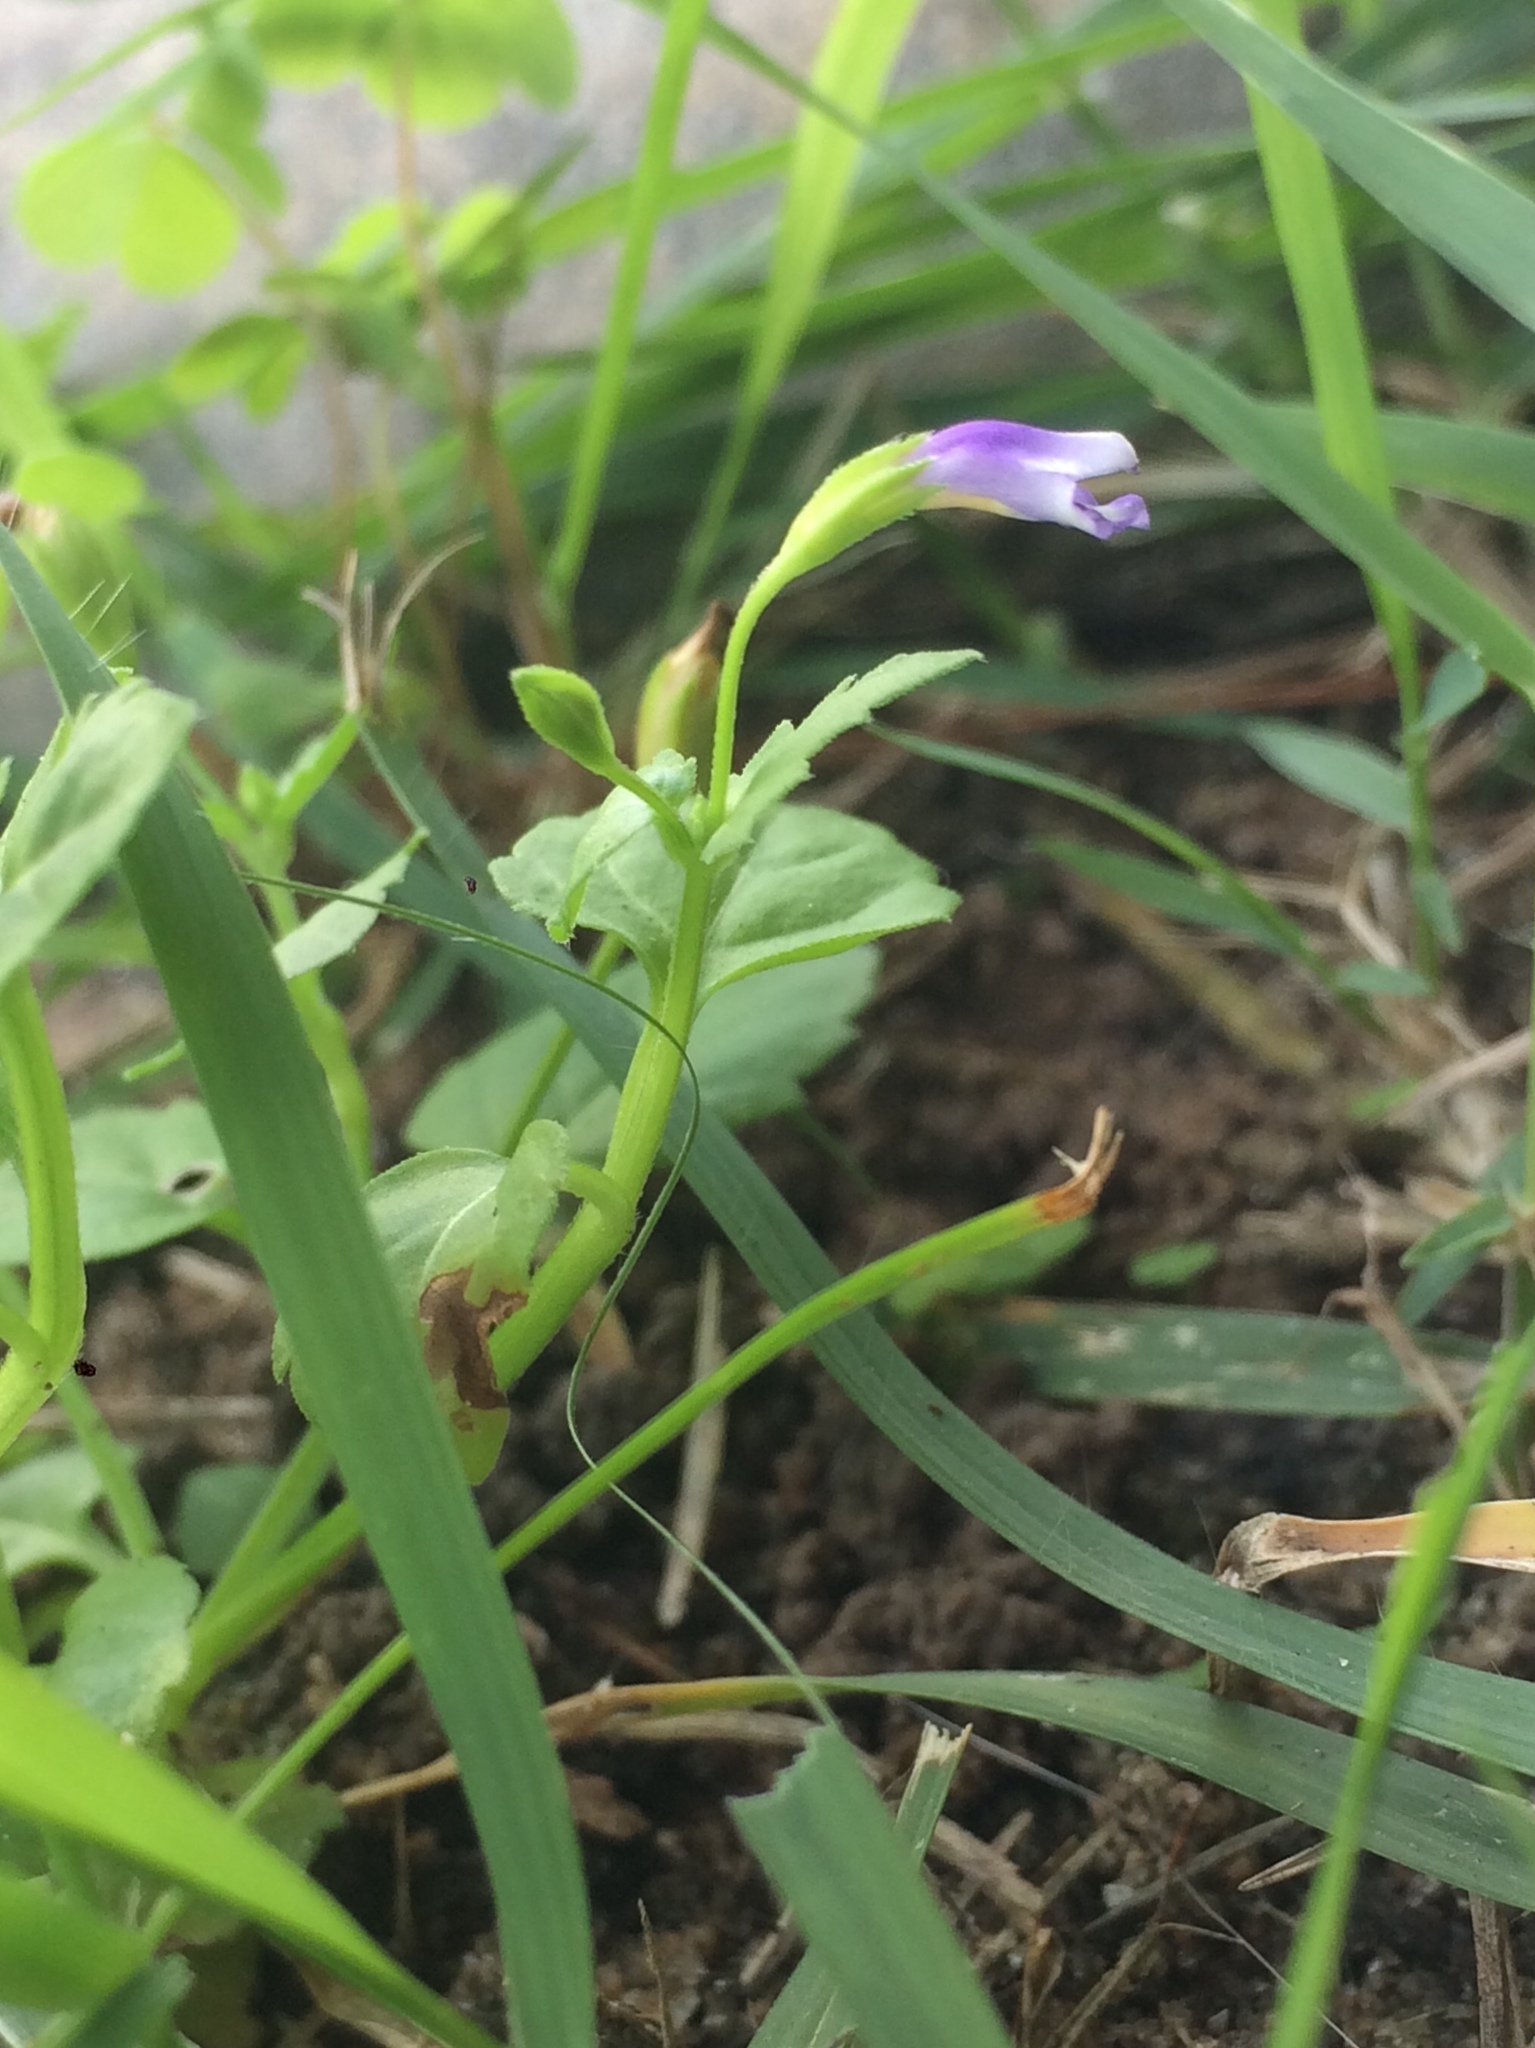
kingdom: Plantae
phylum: Tracheophyta
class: Magnoliopsida
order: Lamiales
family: Linderniaceae
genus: Torenia
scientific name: Torenia crustacea
